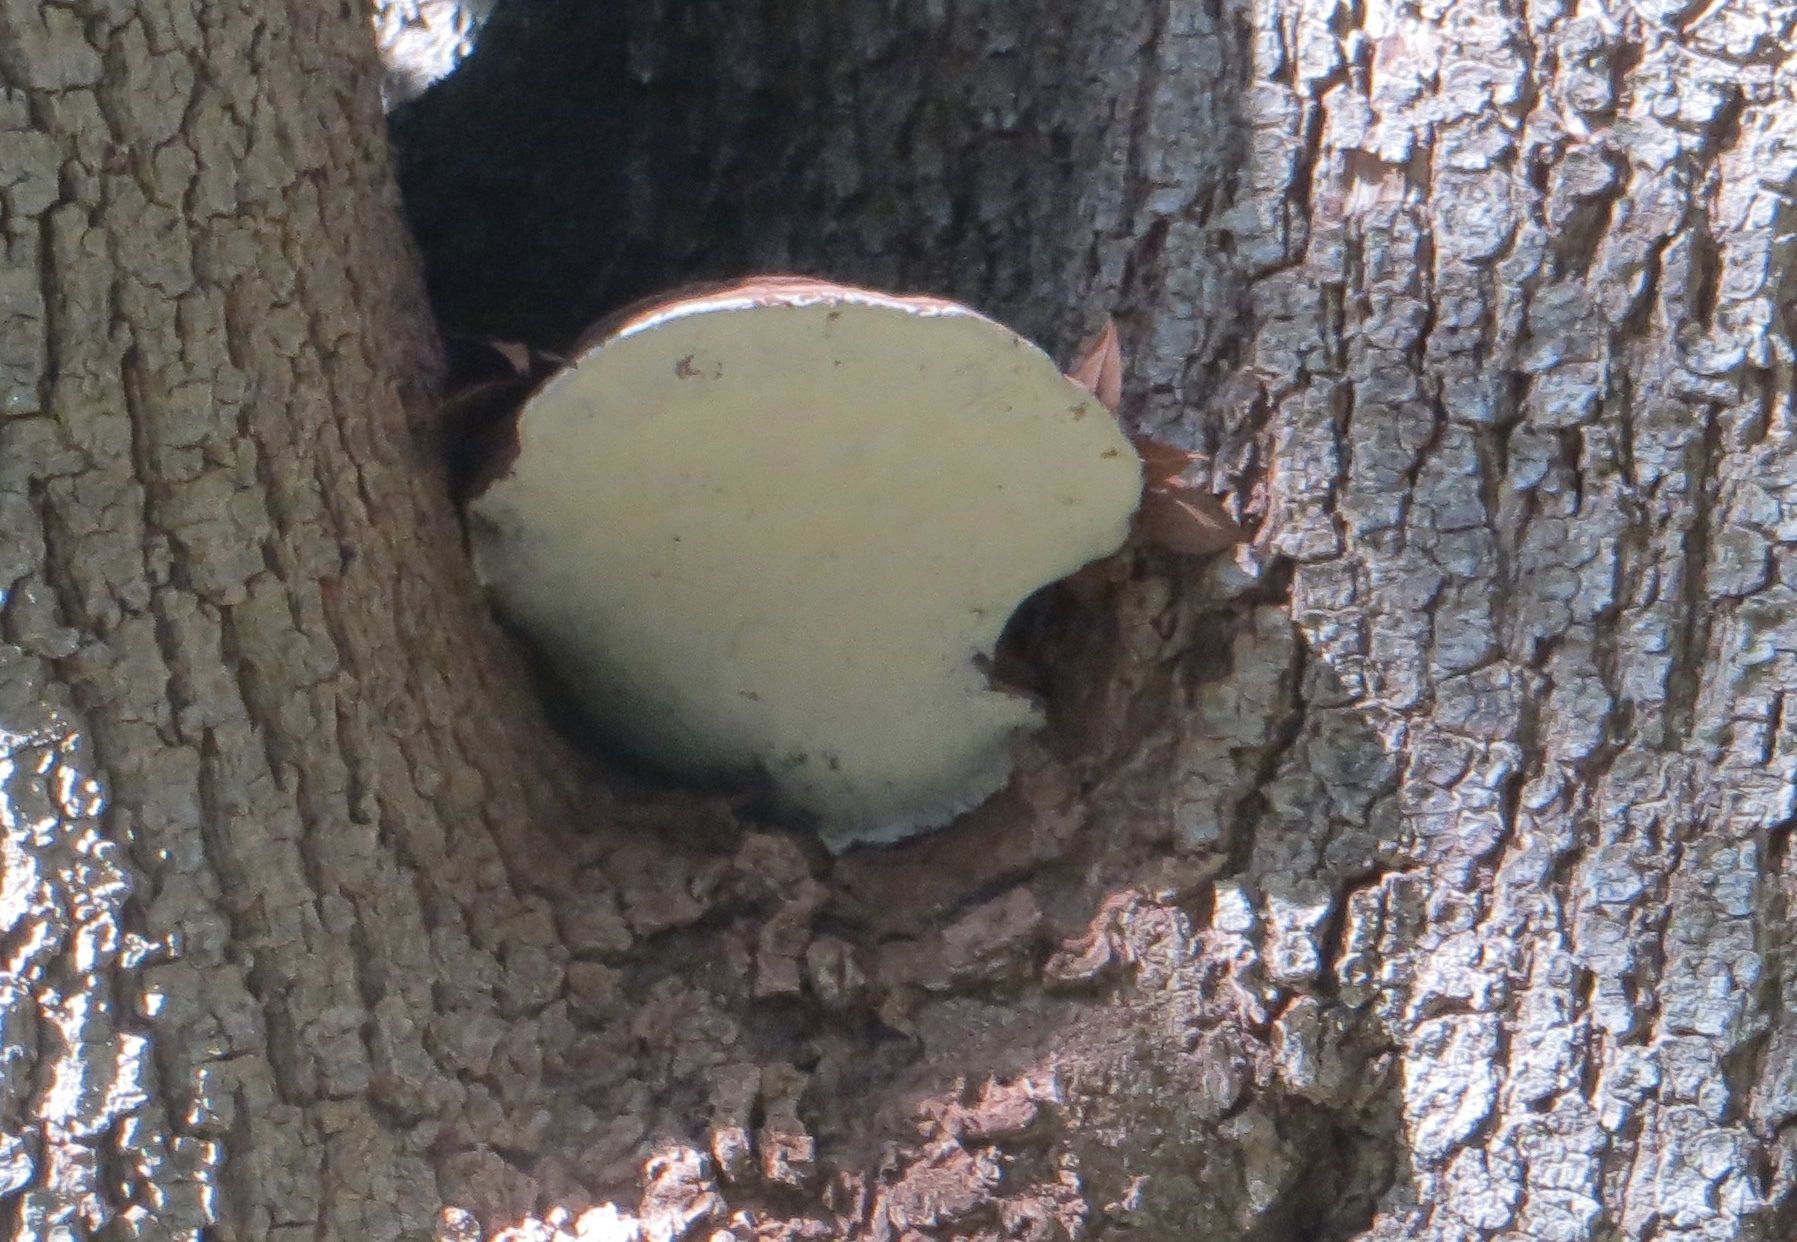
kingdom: Fungi
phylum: Basidiomycota
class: Agaricomycetes
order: Polyporales
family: Polyporaceae
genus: Ganoderma
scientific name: Ganoderma brownii
